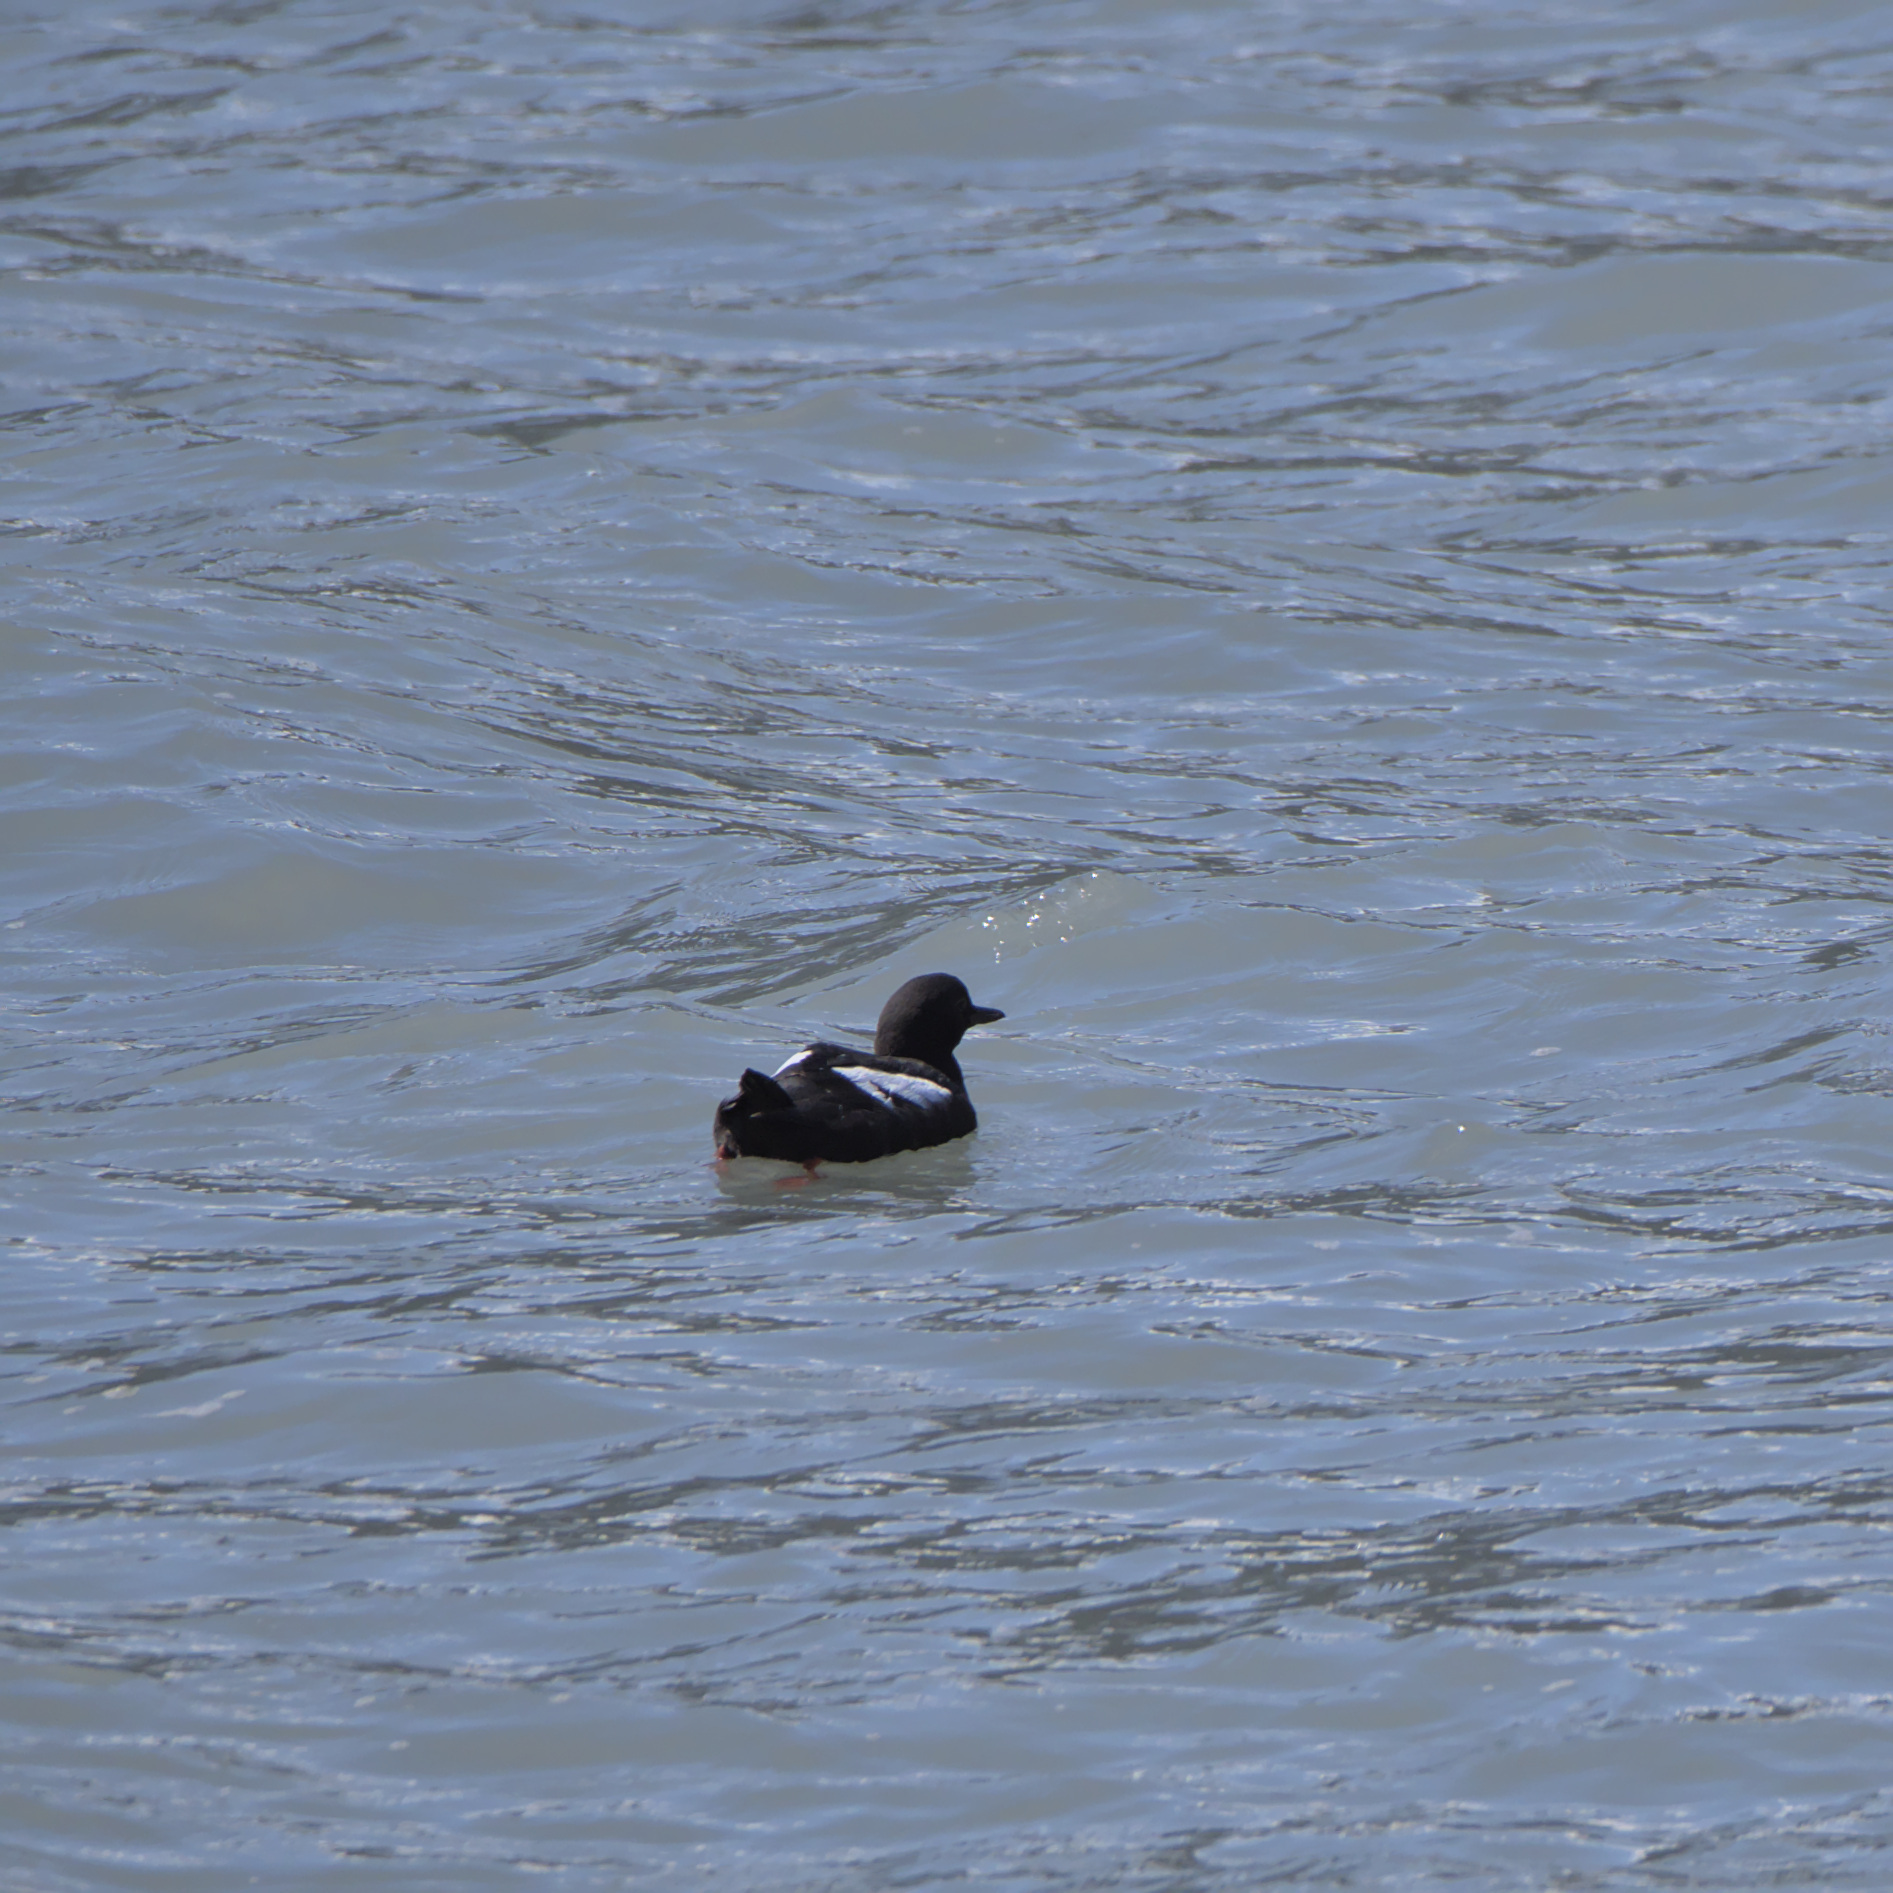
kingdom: Animalia
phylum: Chordata
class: Aves
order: Charadriiformes
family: Alcidae
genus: Cepphus
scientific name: Cepphus columba
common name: Pigeon guillemot
